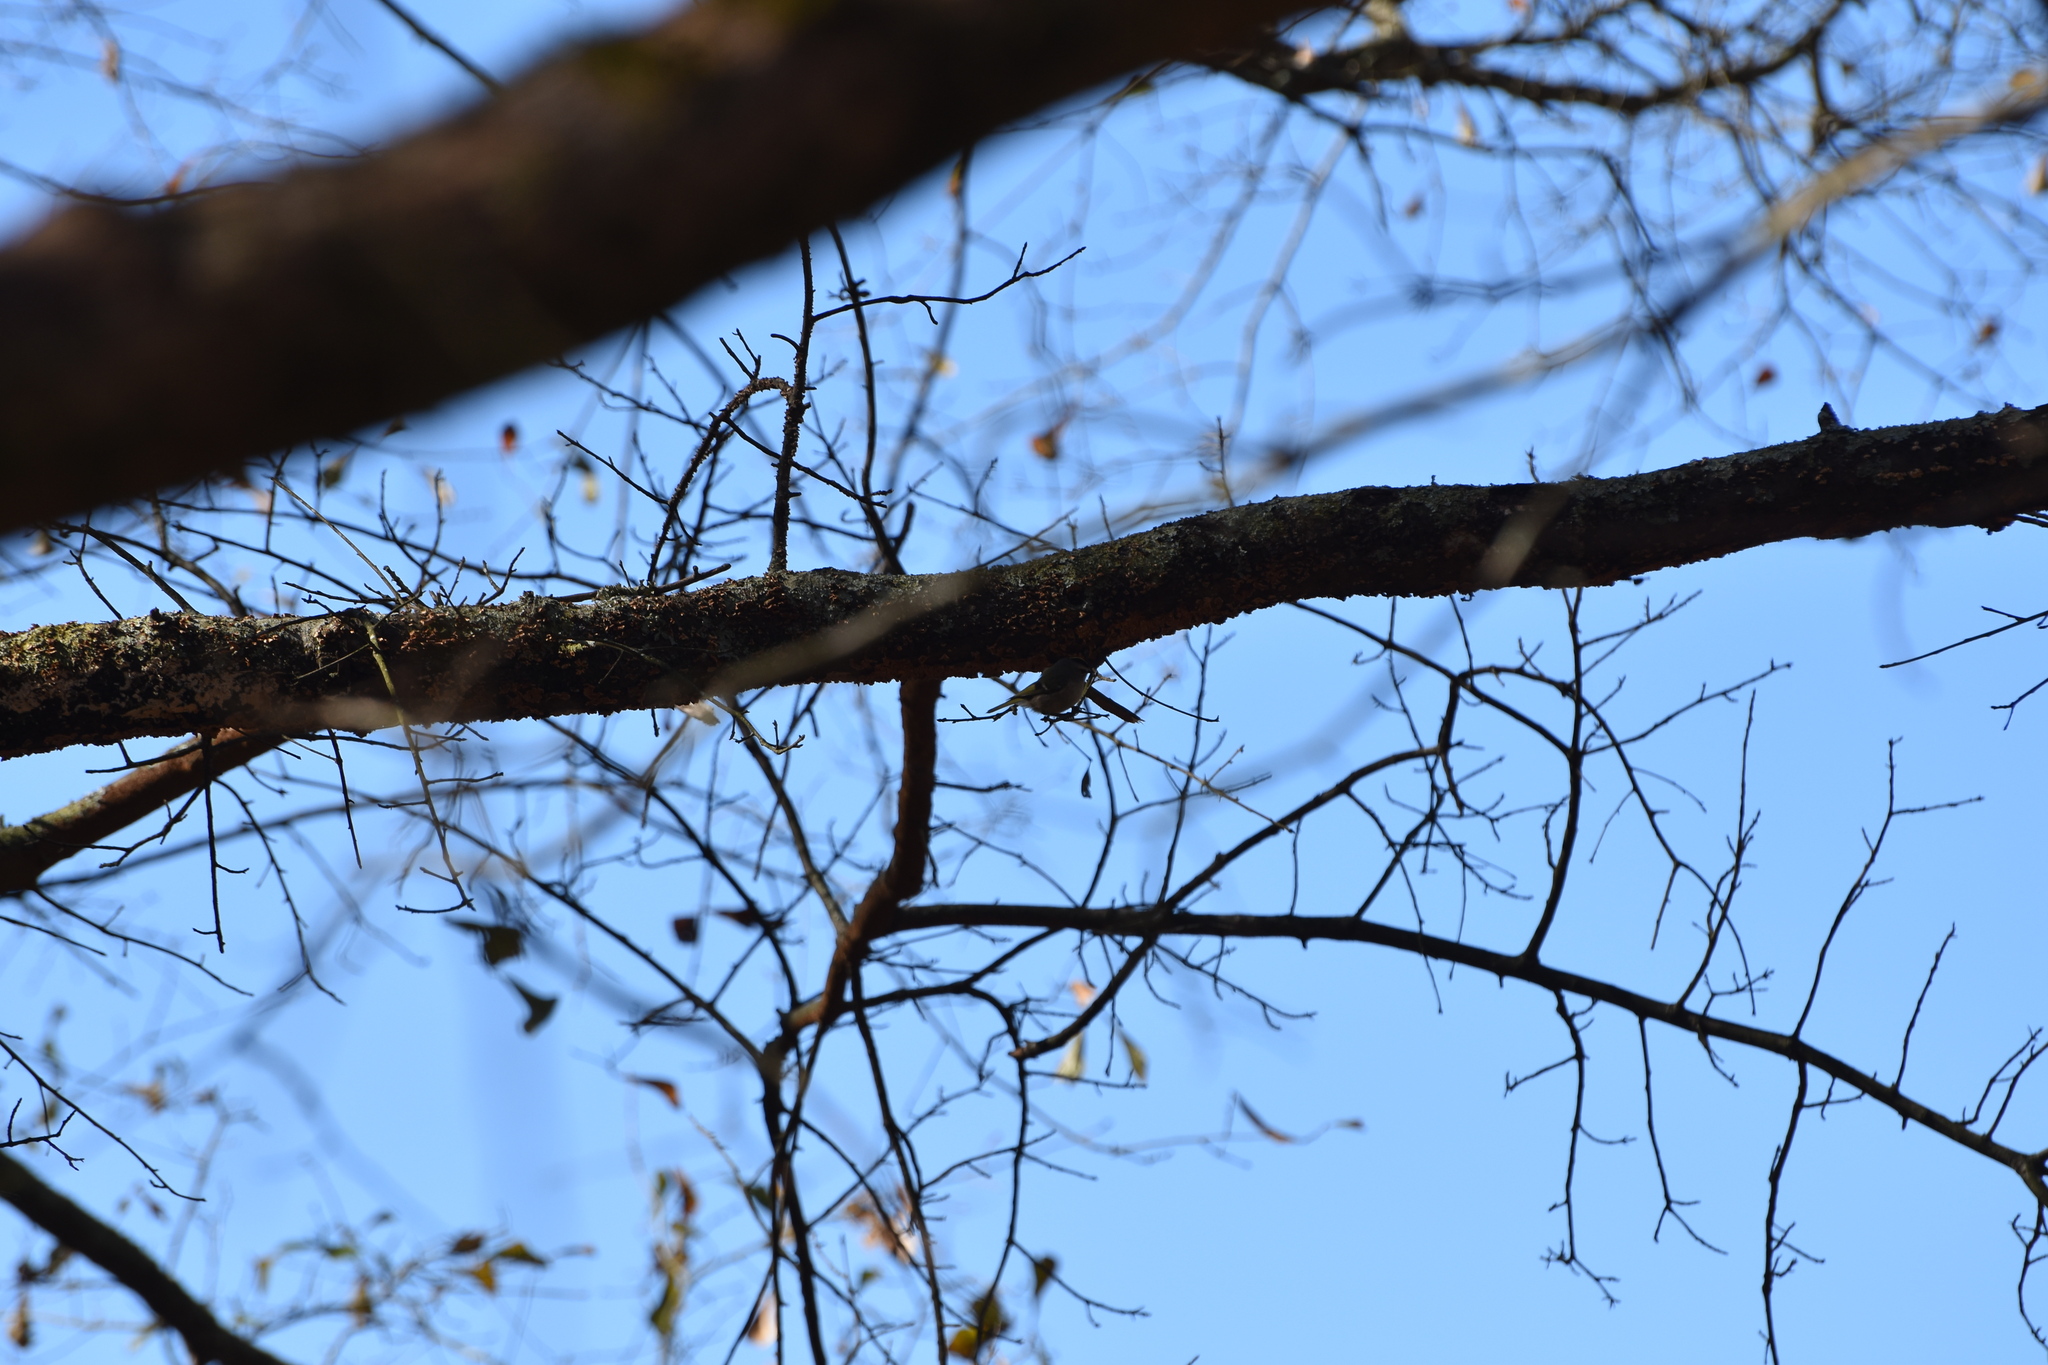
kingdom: Animalia
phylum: Chordata
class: Aves
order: Passeriformes
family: Regulidae
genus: Regulus
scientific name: Regulus satrapa
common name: Golden-crowned kinglet
